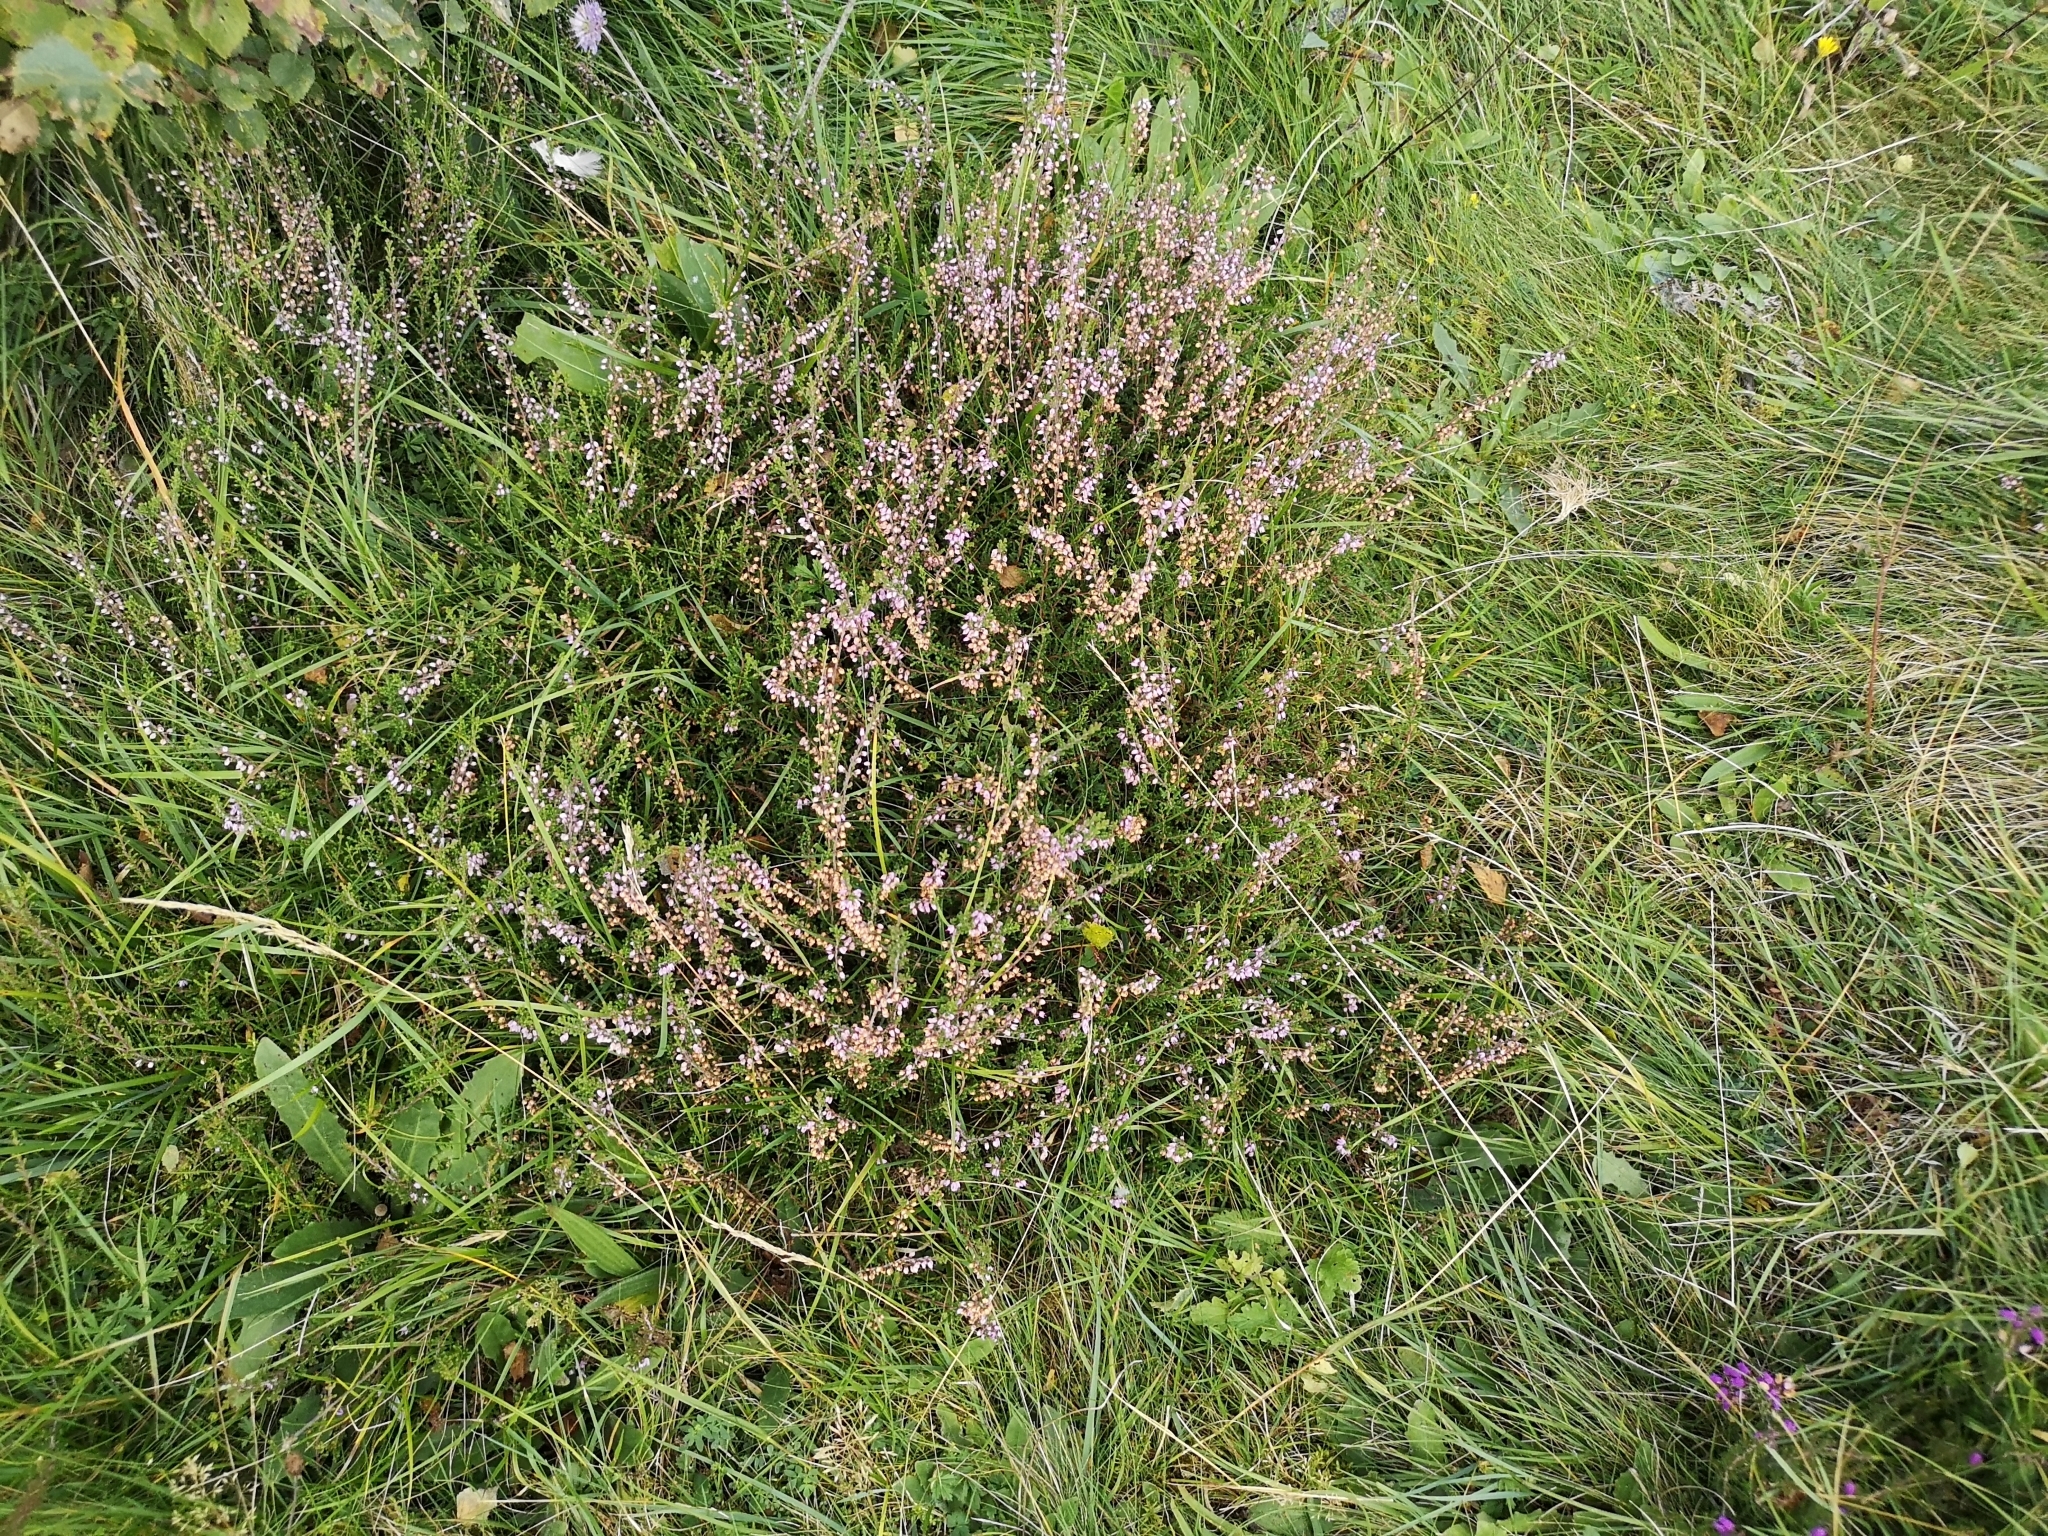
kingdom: Plantae
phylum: Tracheophyta
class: Magnoliopsida
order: Ericales
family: Ericaceae
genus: Calluna
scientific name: Calluna vulgaris
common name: Heather
